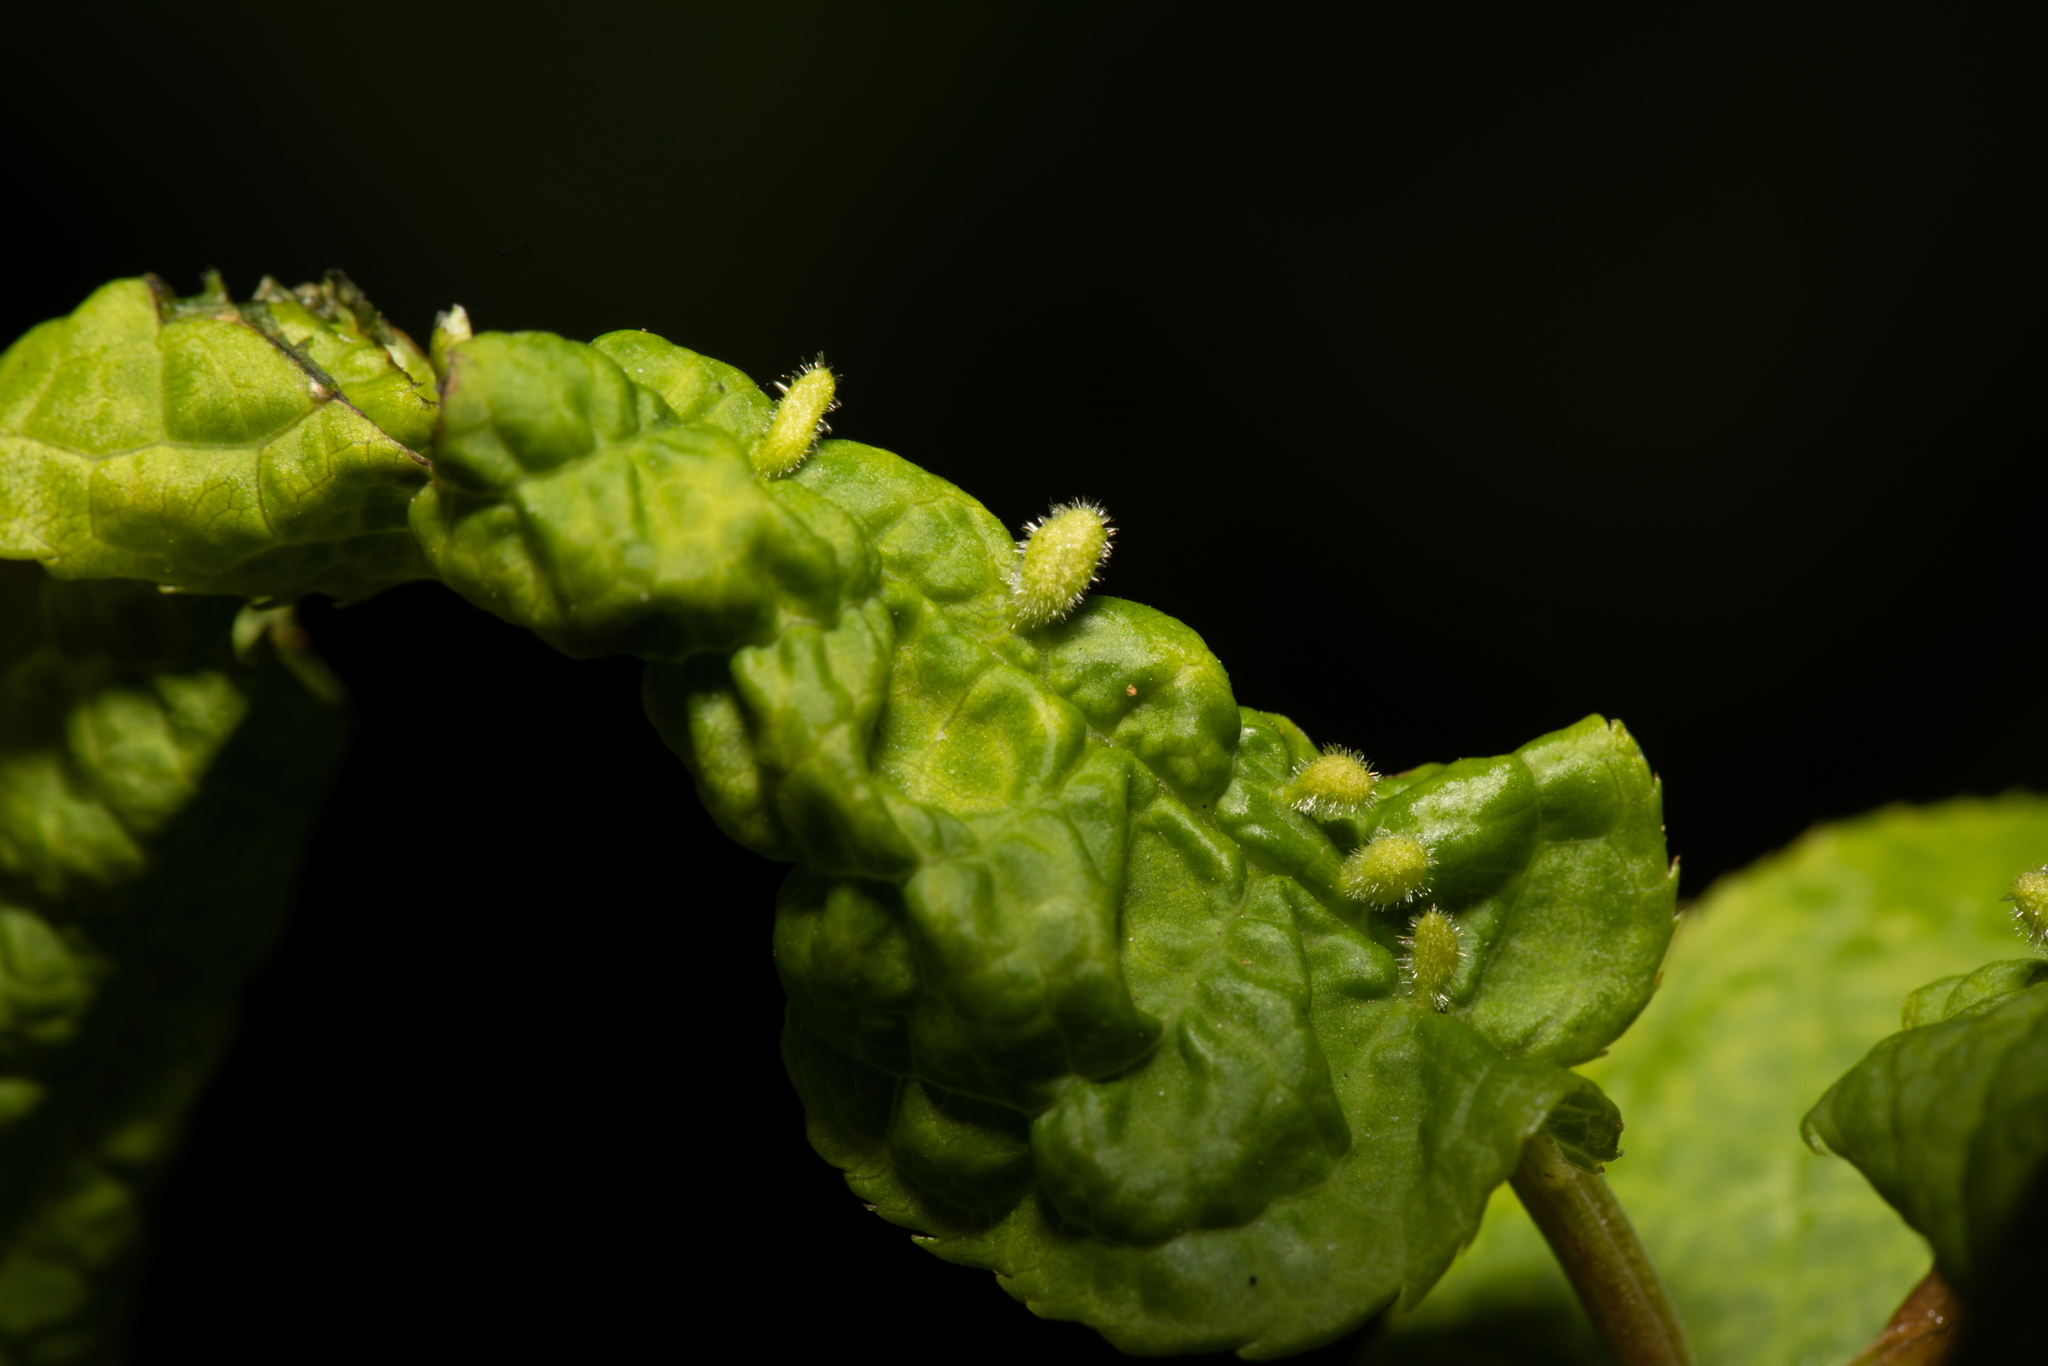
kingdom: Animalia
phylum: Arthropoda
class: Arachnida
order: Trombidiformes
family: Eriophyidae
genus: Phyllocoptes
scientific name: Phyllocoptes eupadi
